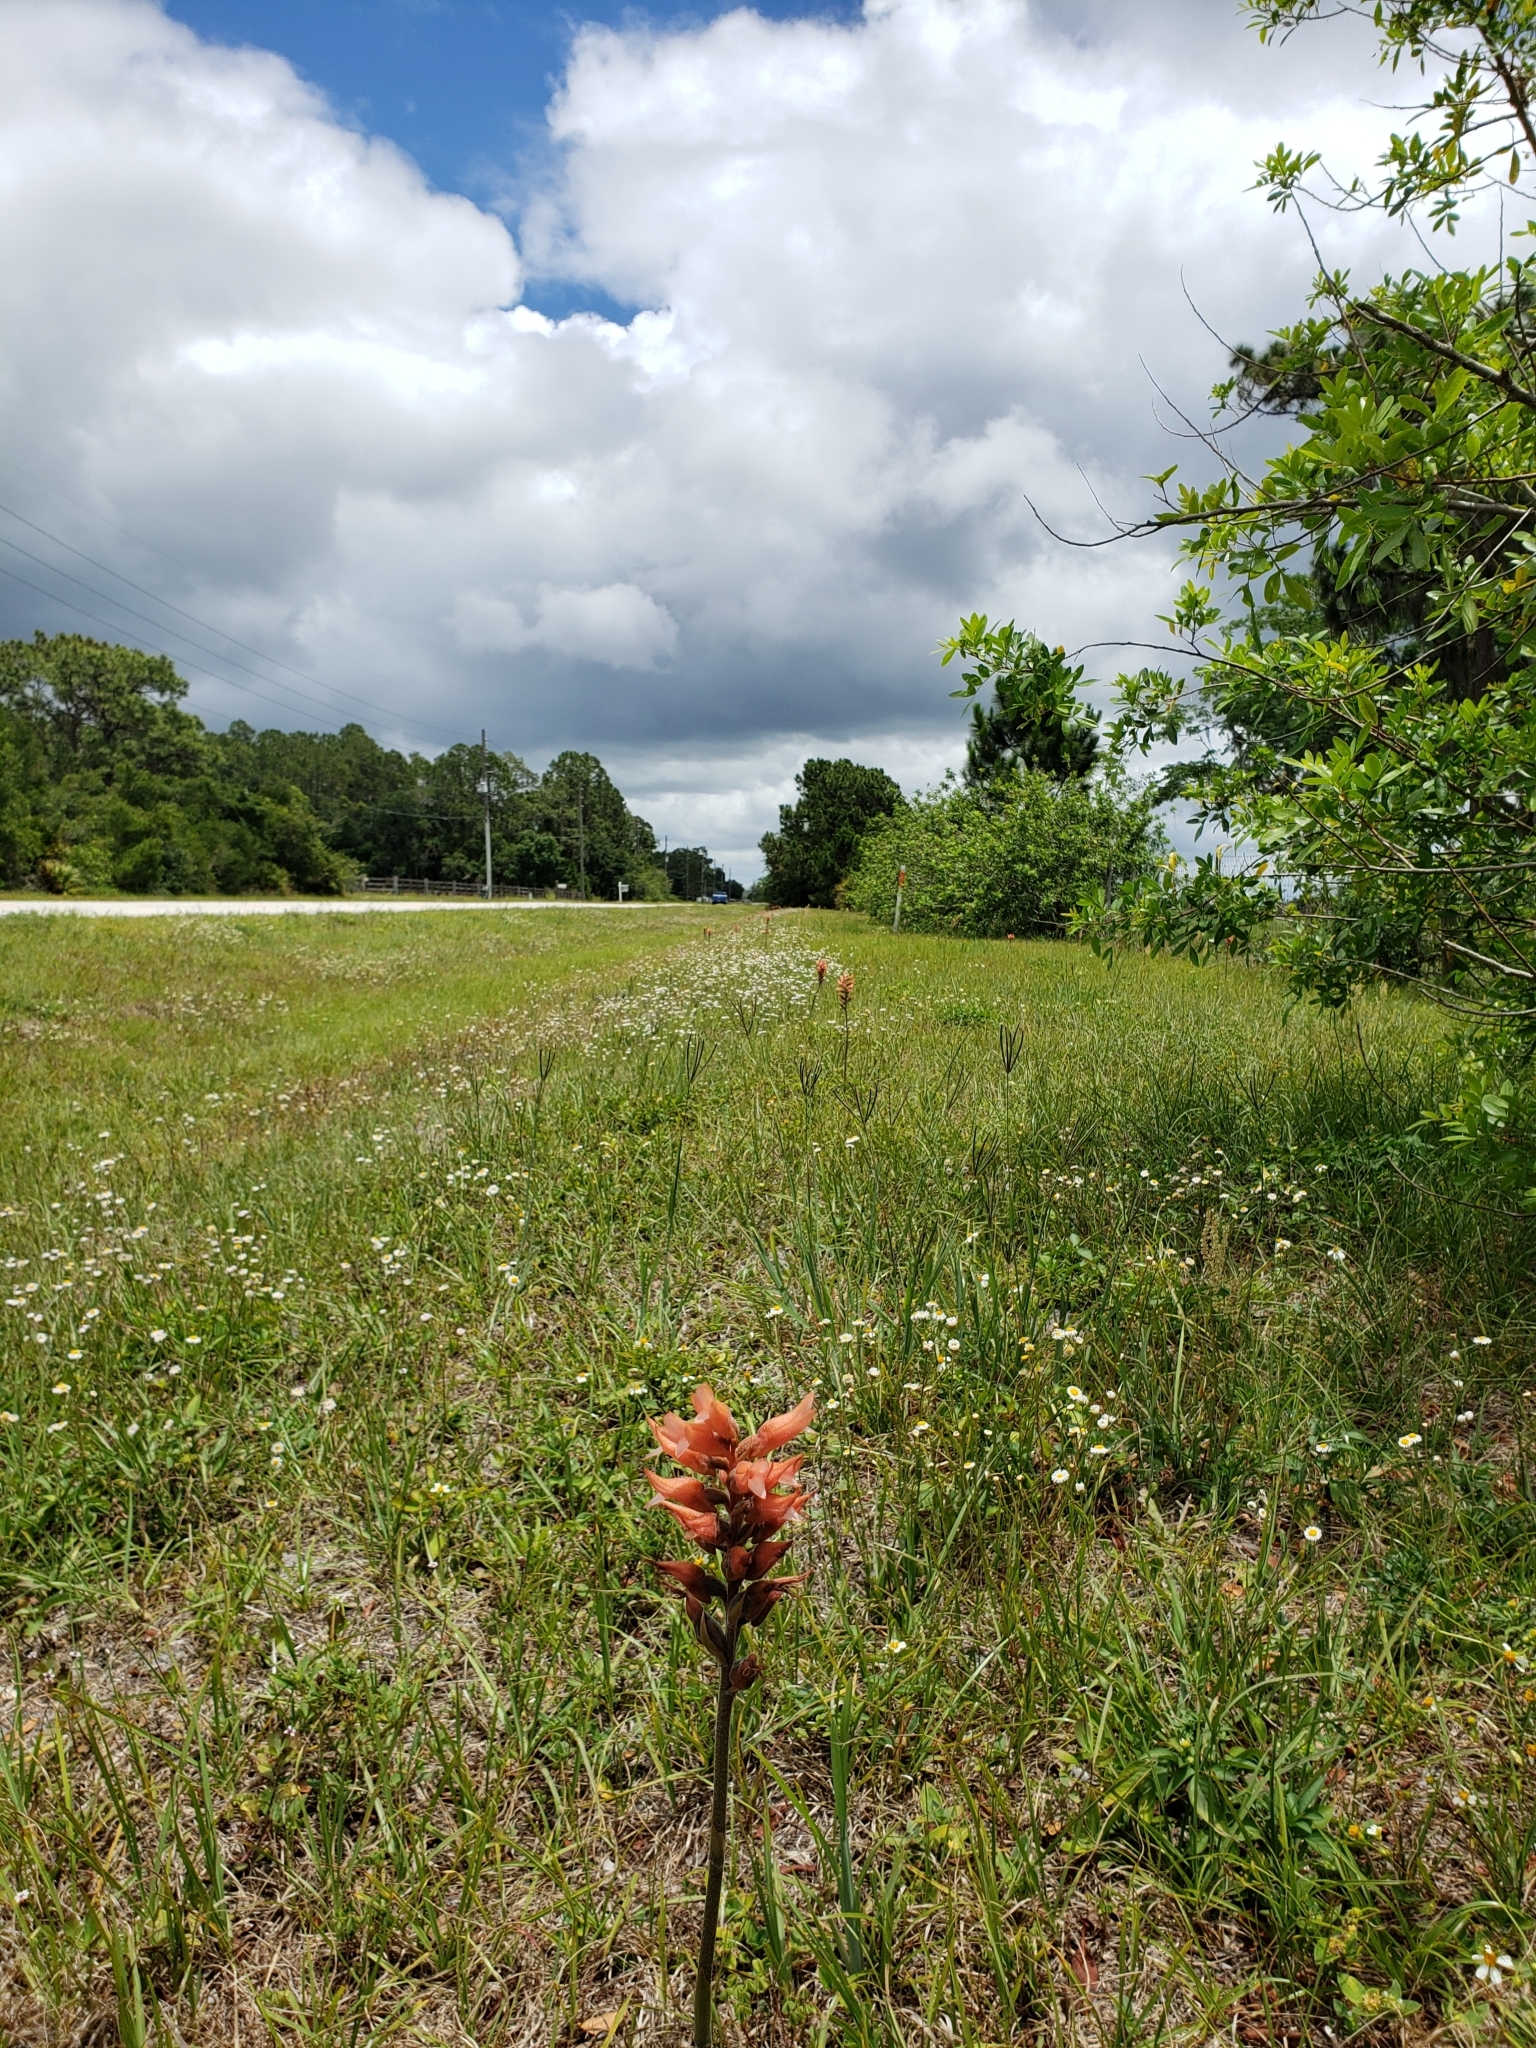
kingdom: Plantae
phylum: Tracheophyta
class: Liliopsida
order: Asparagales
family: Orchidaceae
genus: Sacoila
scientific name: Sacoila lanceolata
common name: Leafless beaked ladiestresses
